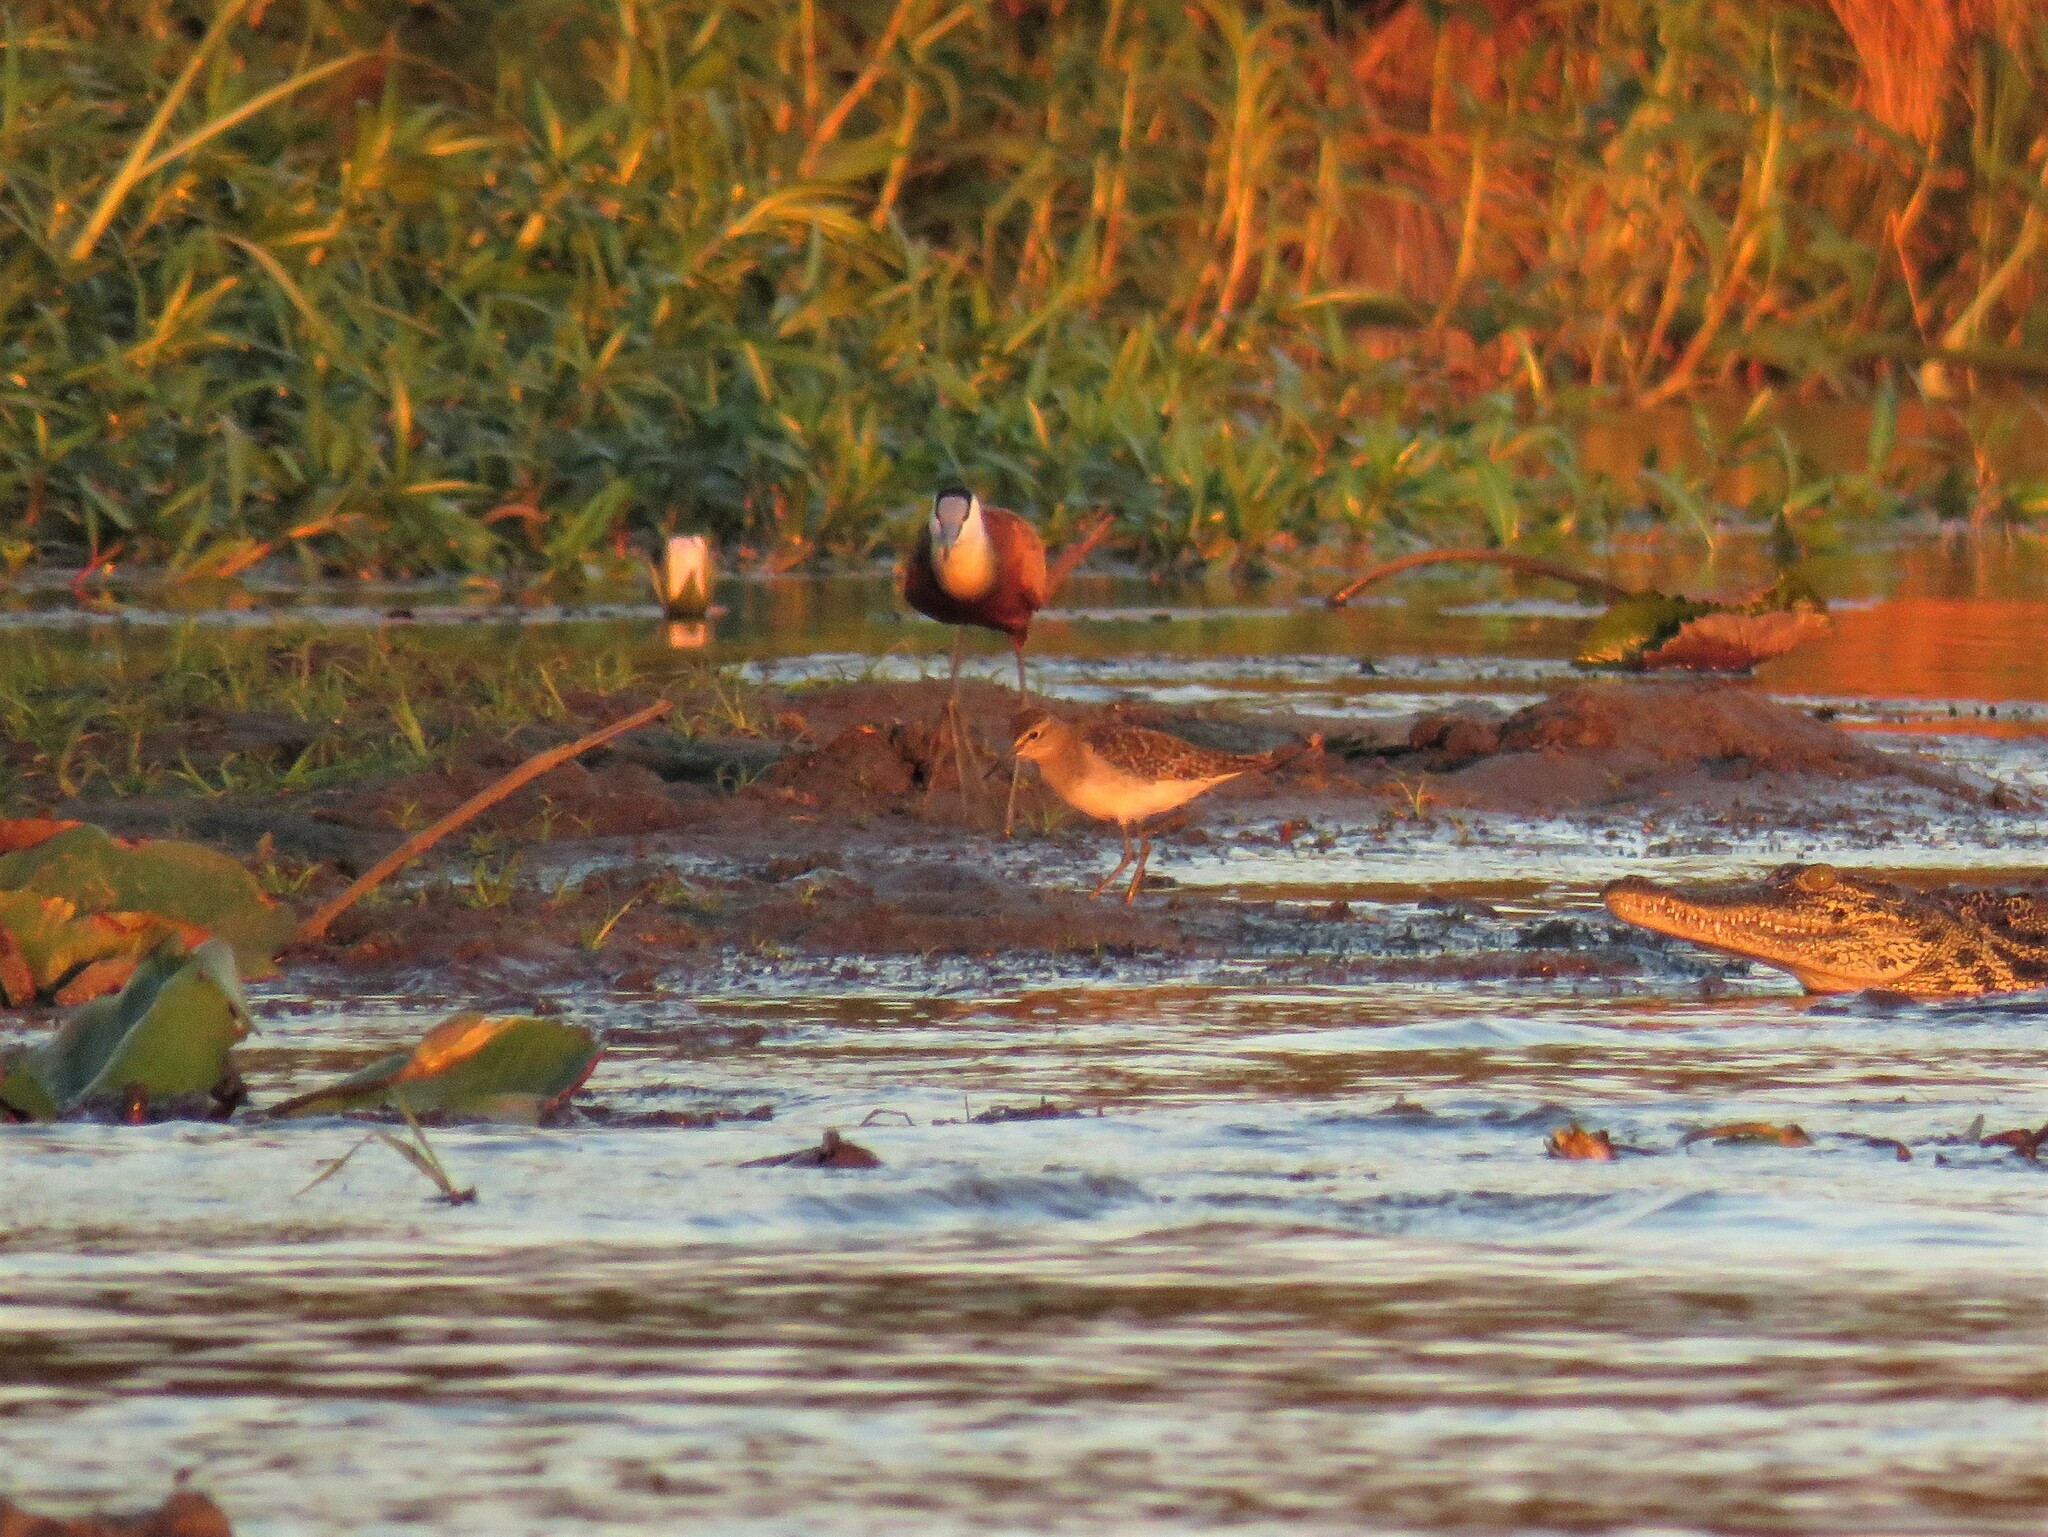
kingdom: Animalia
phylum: Chordata
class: Aves
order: Charadriiformes
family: Scolopacidae
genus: Tringa
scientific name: Tringa glareola
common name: Wood sandpiper
